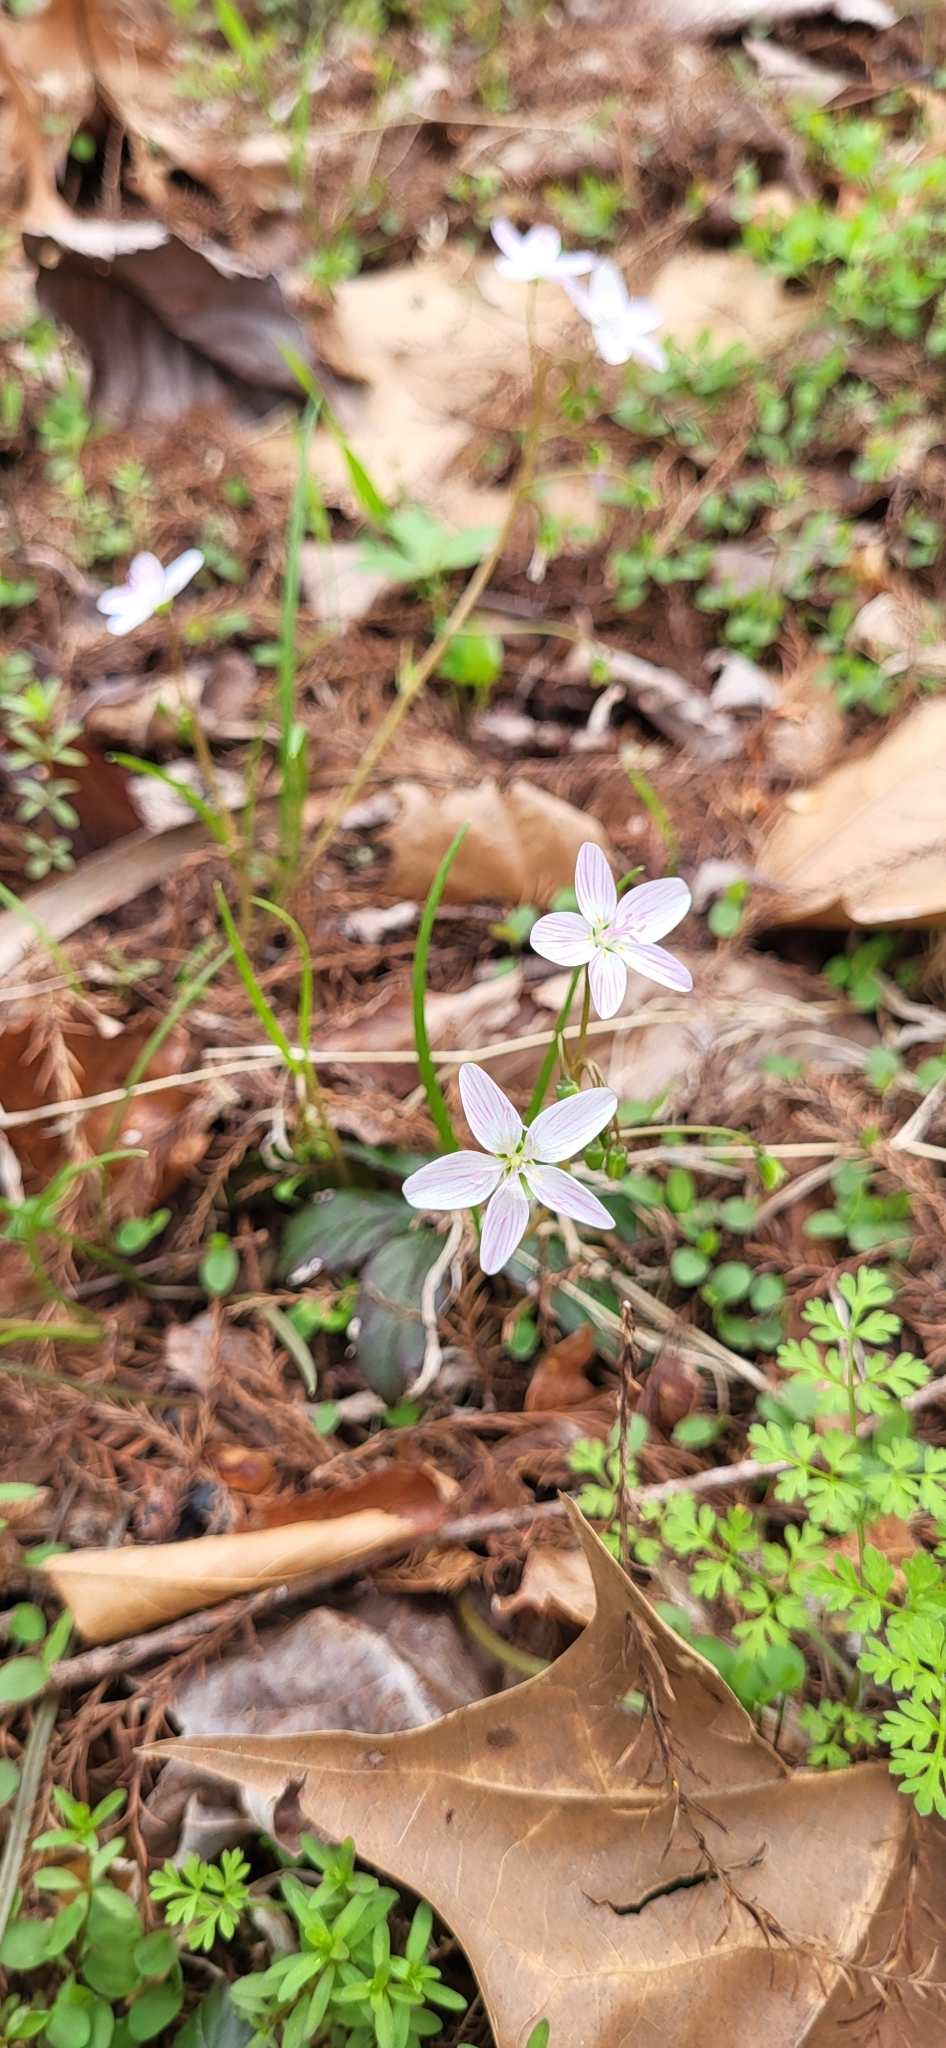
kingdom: Plantae
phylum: Tracheophyta
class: Magnoliopsida
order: Caryophyllales
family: Montiaceae
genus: Claytonia
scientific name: Claytonia virginica
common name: Virginia springbeauty
